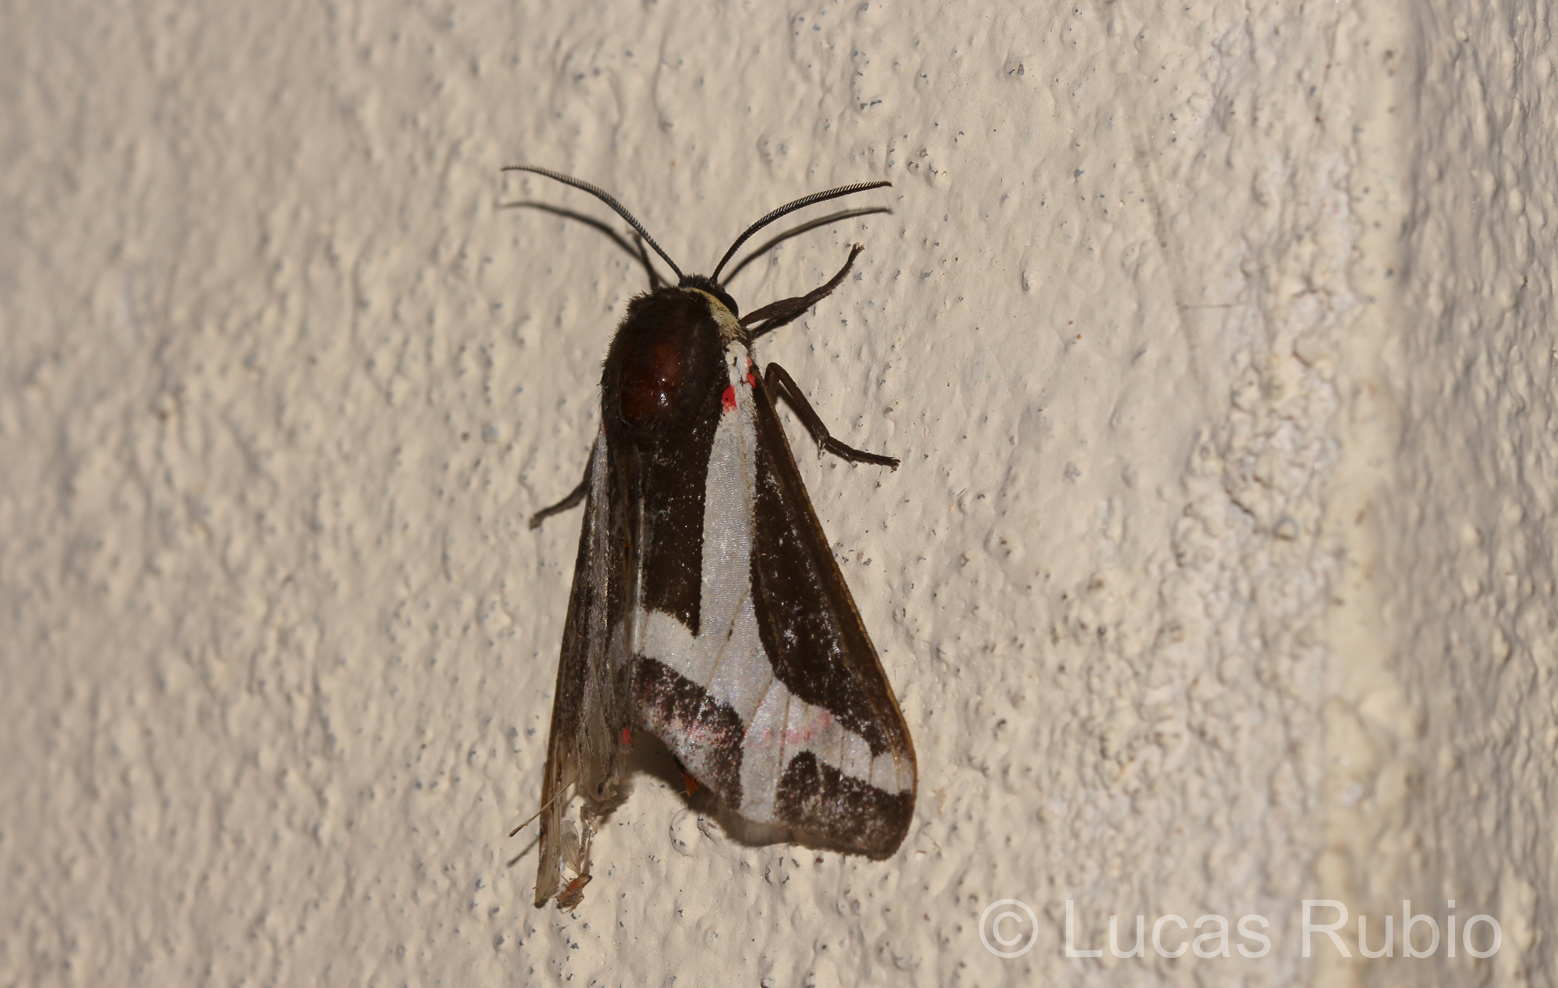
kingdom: Animalia
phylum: Arthropoda
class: Insecta
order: Lepidoptera
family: Erebidae
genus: Dysschema
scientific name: Dysschema sacrifica
